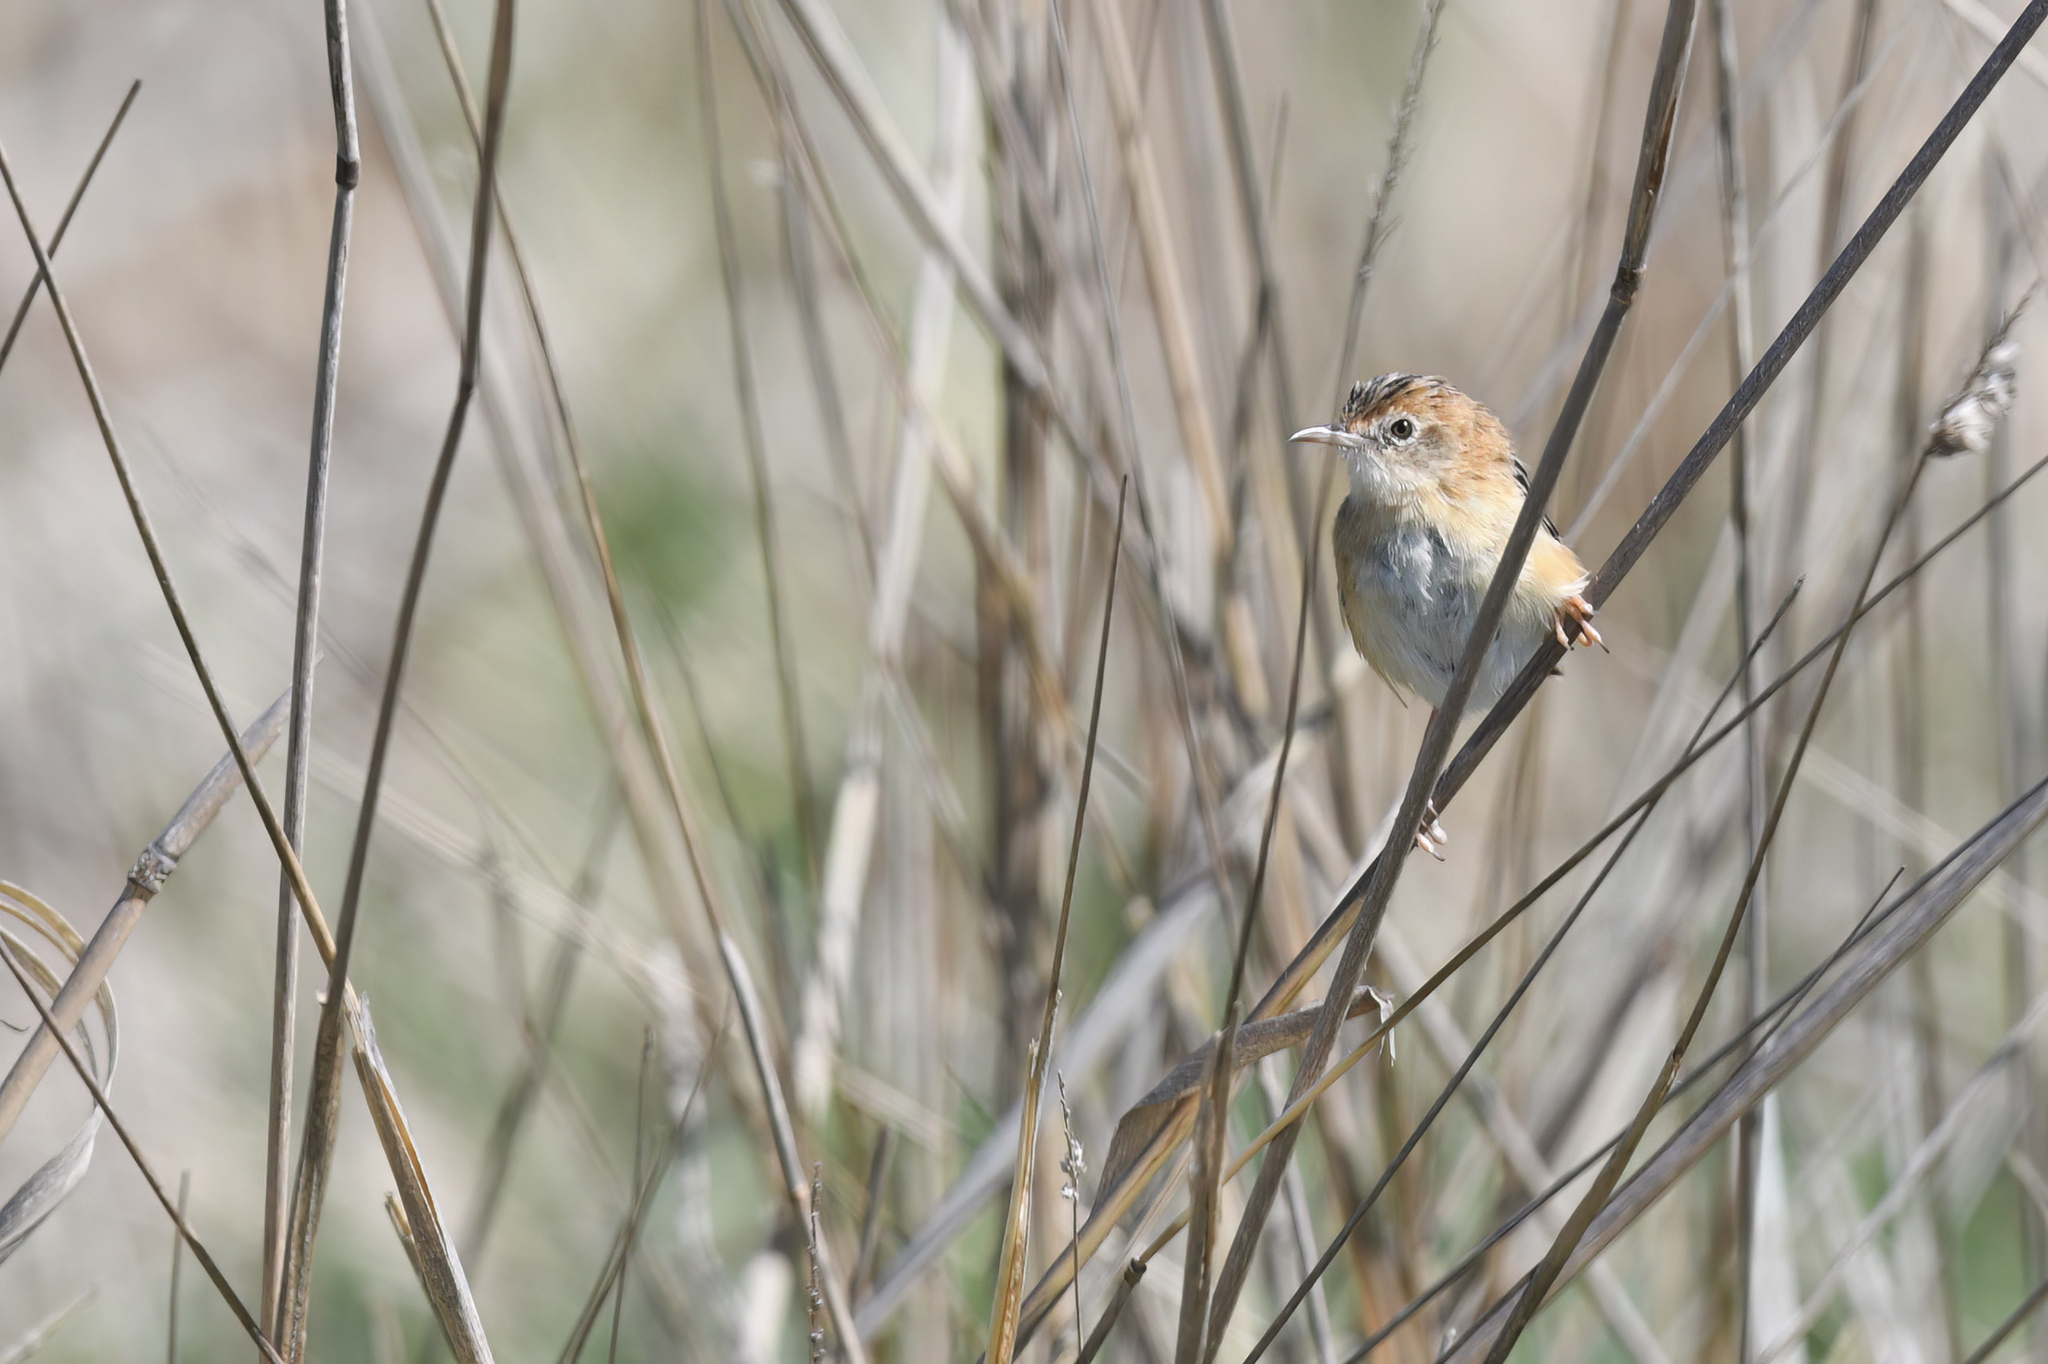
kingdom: Animalia
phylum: Chordata
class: Aves
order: Passeriformes
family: Cisticolidae
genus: Cisticola
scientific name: Cisticola exilis
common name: Golden-headed cisticola
